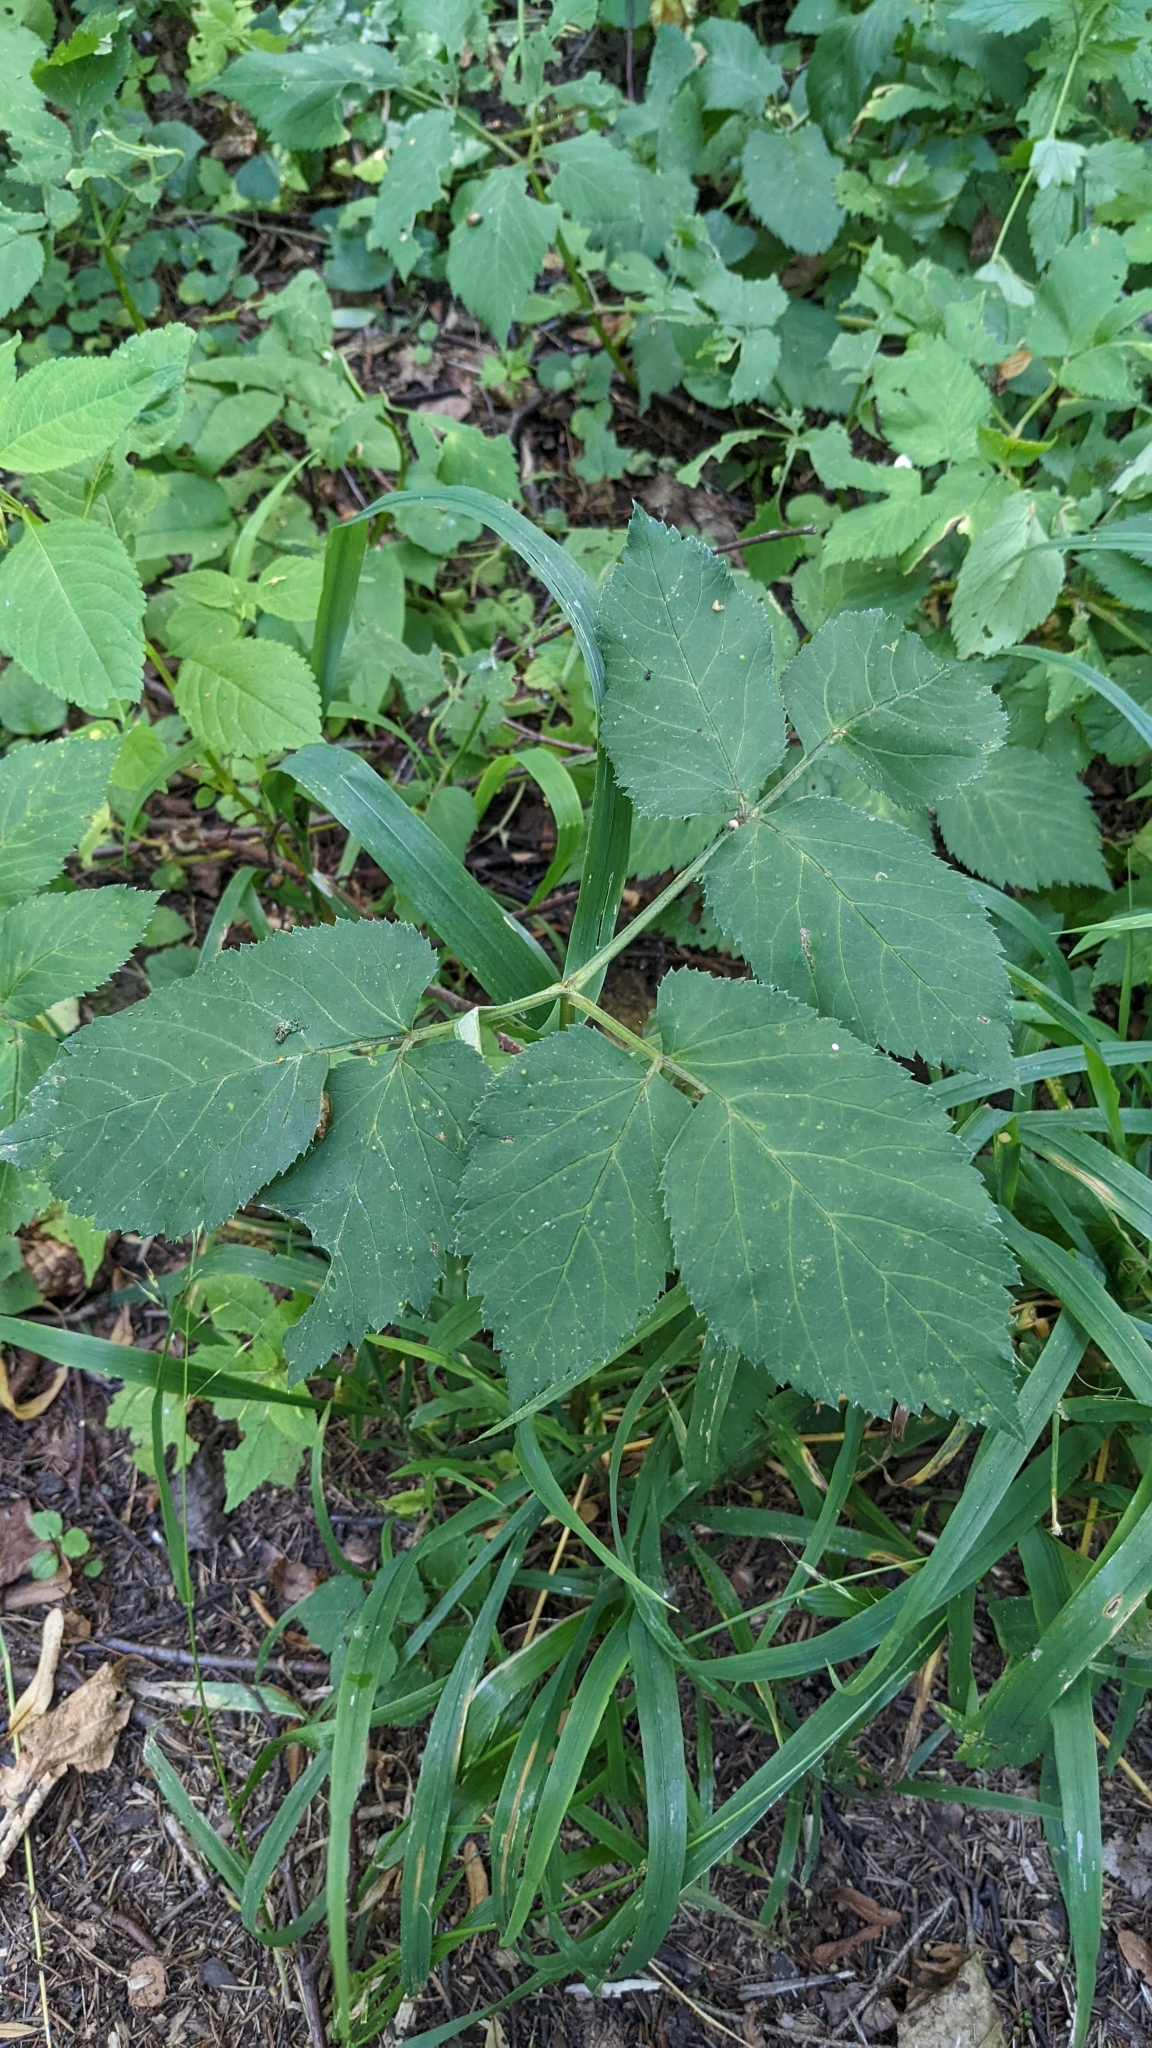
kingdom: Plantae
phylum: Tracheophyta
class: Magnoliopsida
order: Apiales
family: Apiaceae
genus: Aegopodium
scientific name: Aegopodium podagraria
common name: Ground-elder
